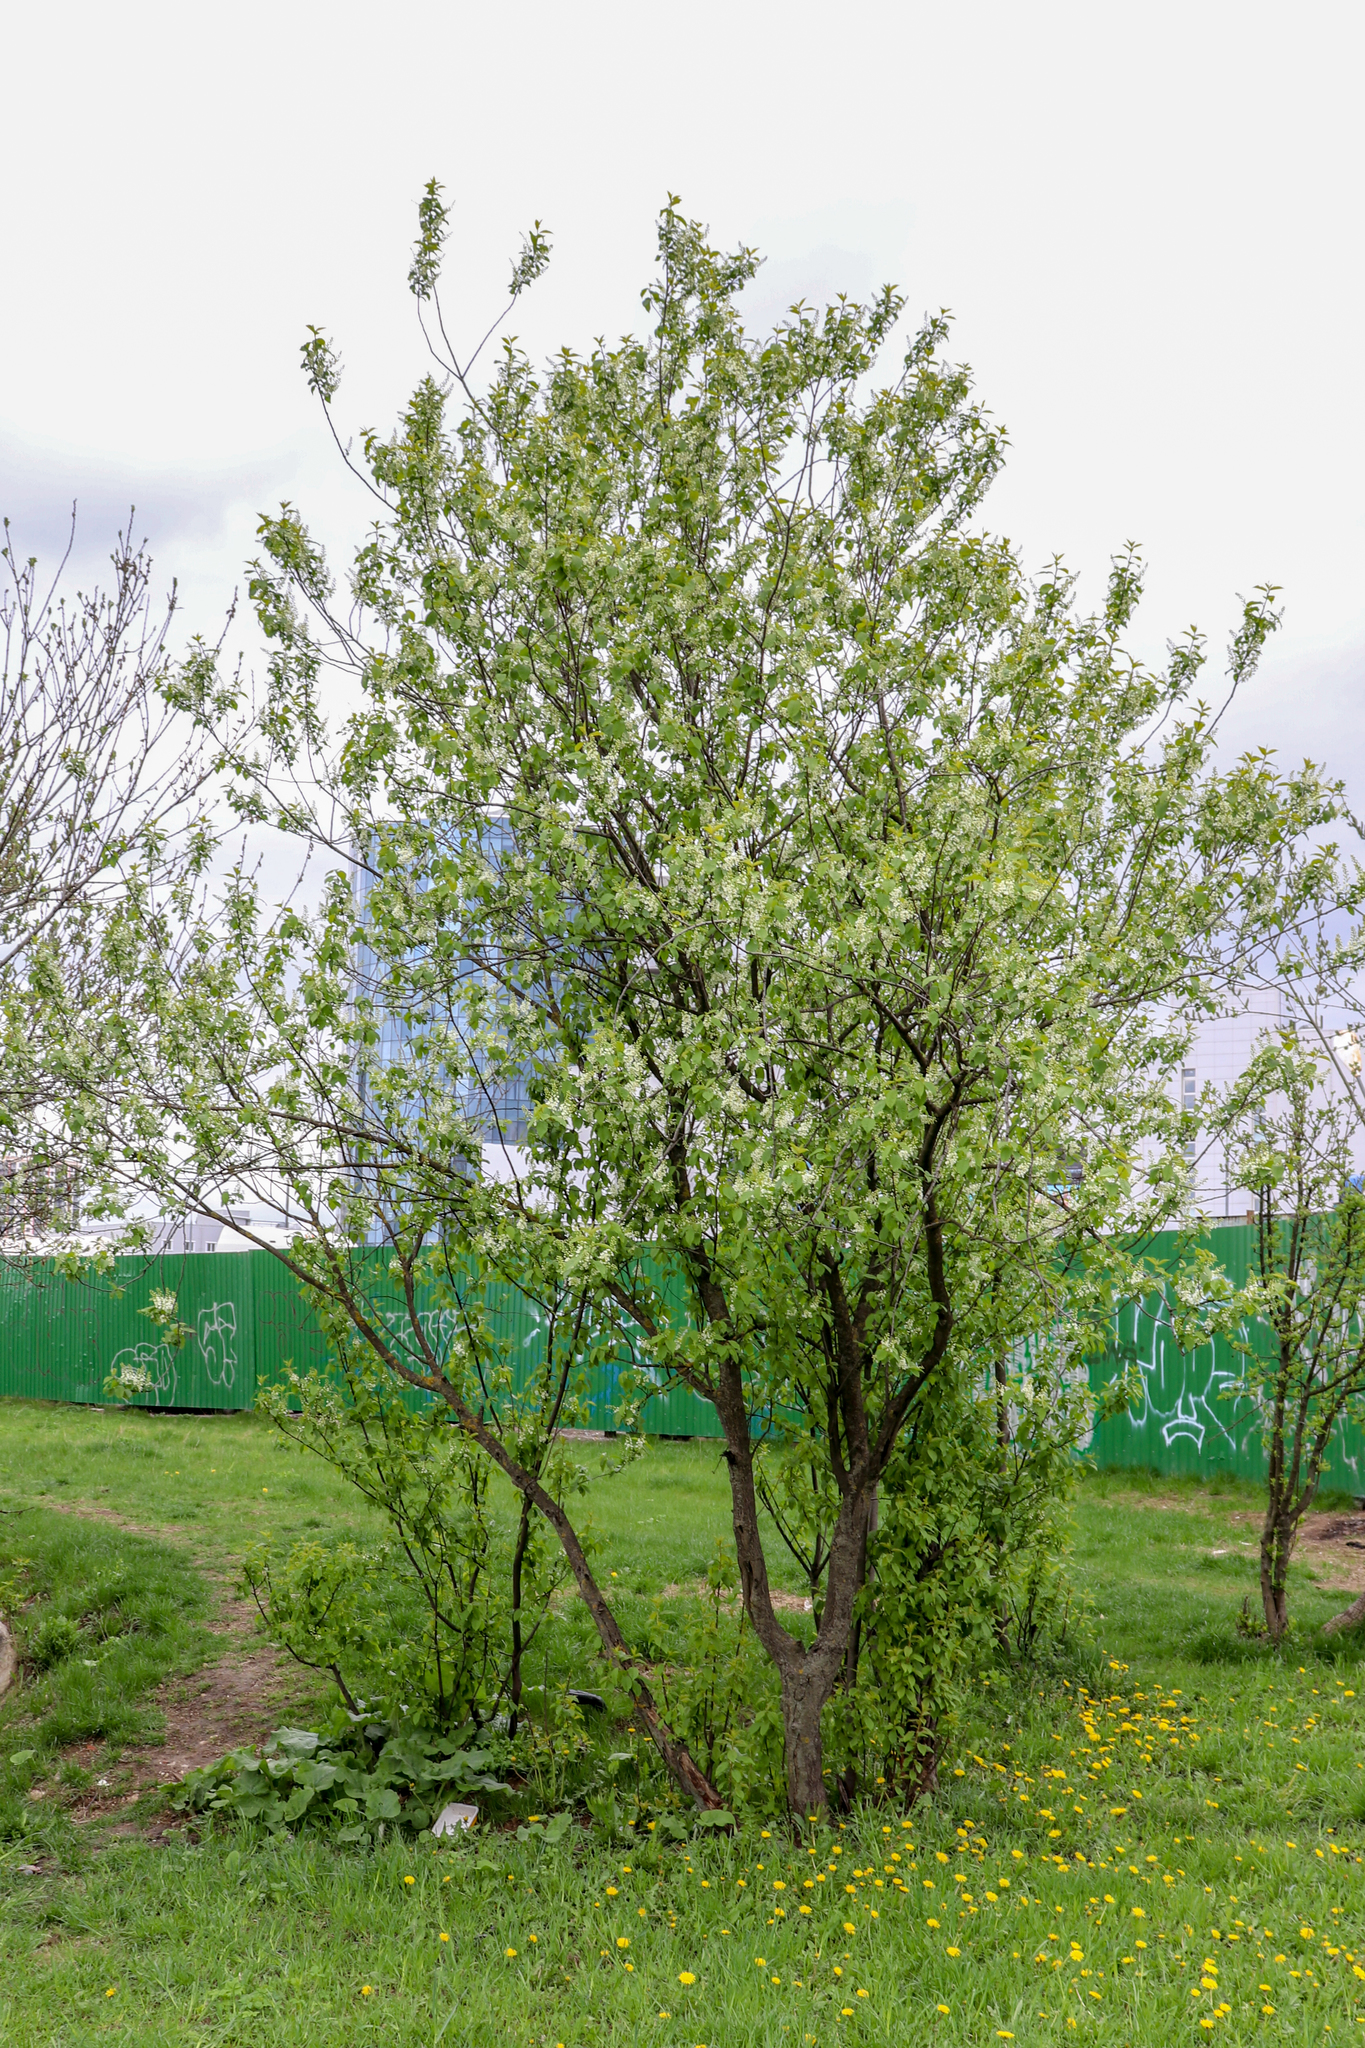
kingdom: Plantae
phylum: Tracheophyta
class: Magnoliopsida
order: Rosales
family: Rosaceae
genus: Prunus
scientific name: Prunus padus
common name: Bird cherry
